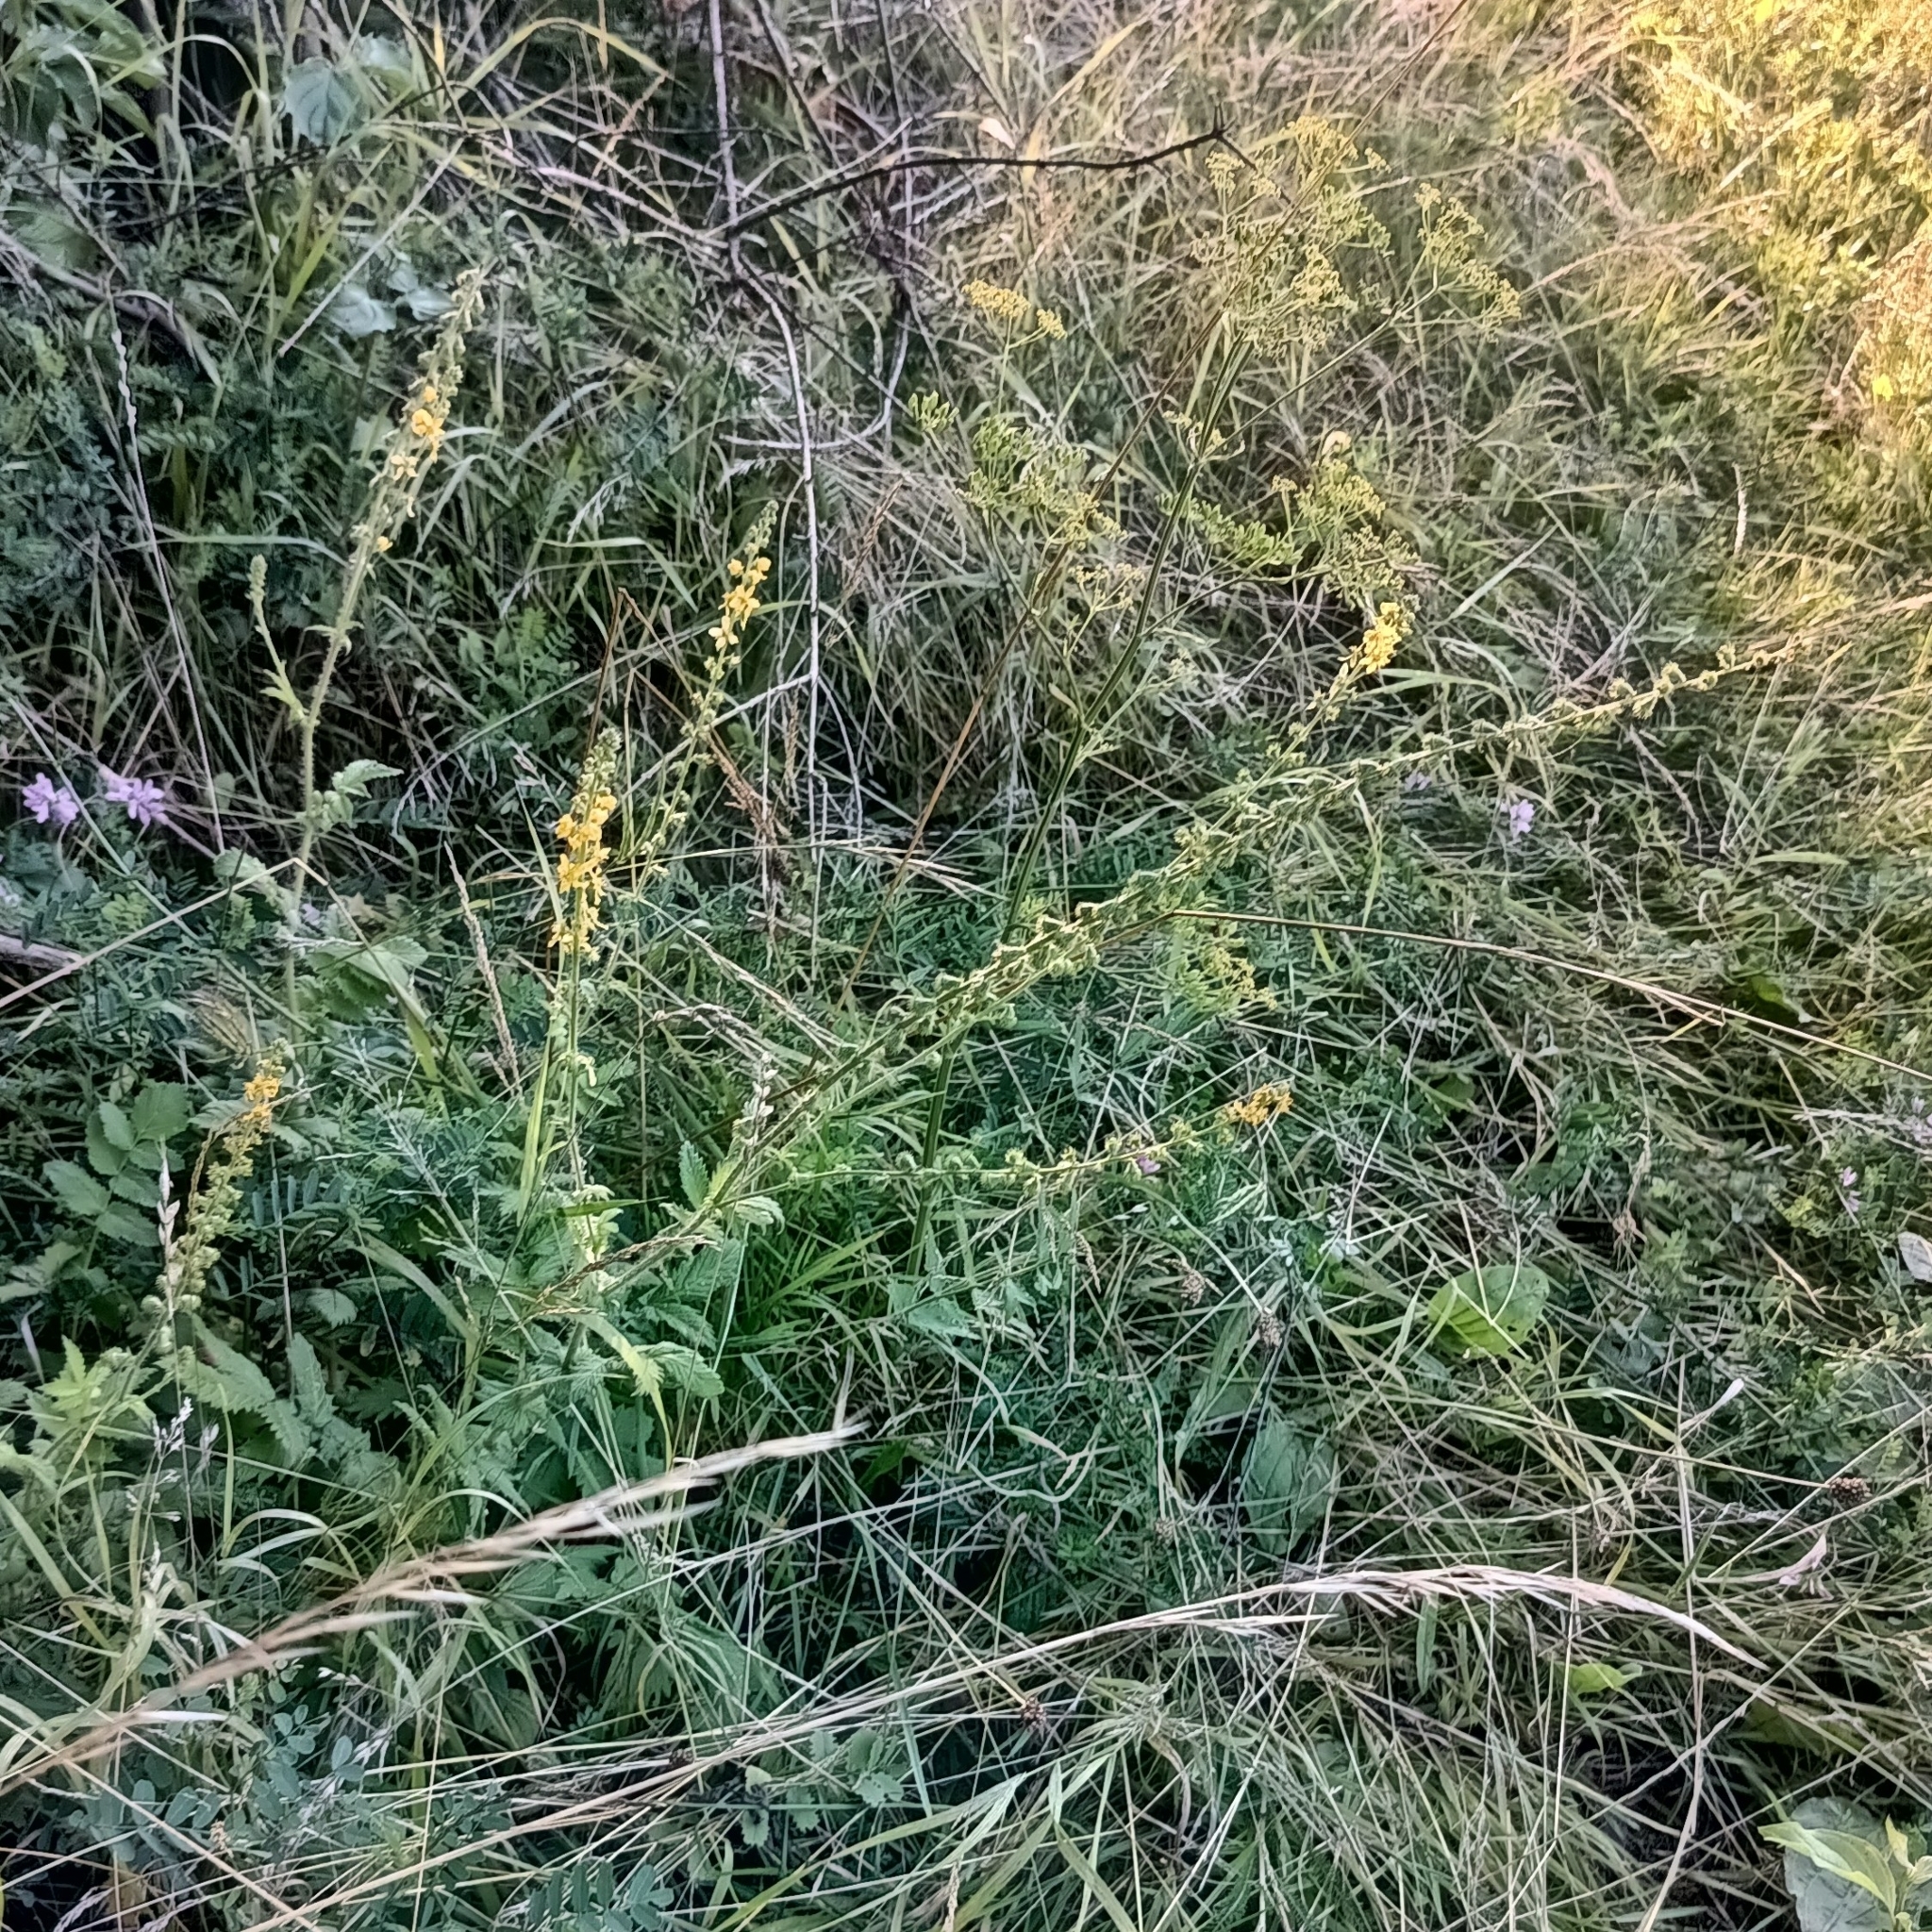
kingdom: Plantae
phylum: Tracheophyta
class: Magnoliopsida
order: Rosales
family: Rosaceae
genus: Agrimonia
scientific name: Agrimonia eupatoria
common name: Agrimony
